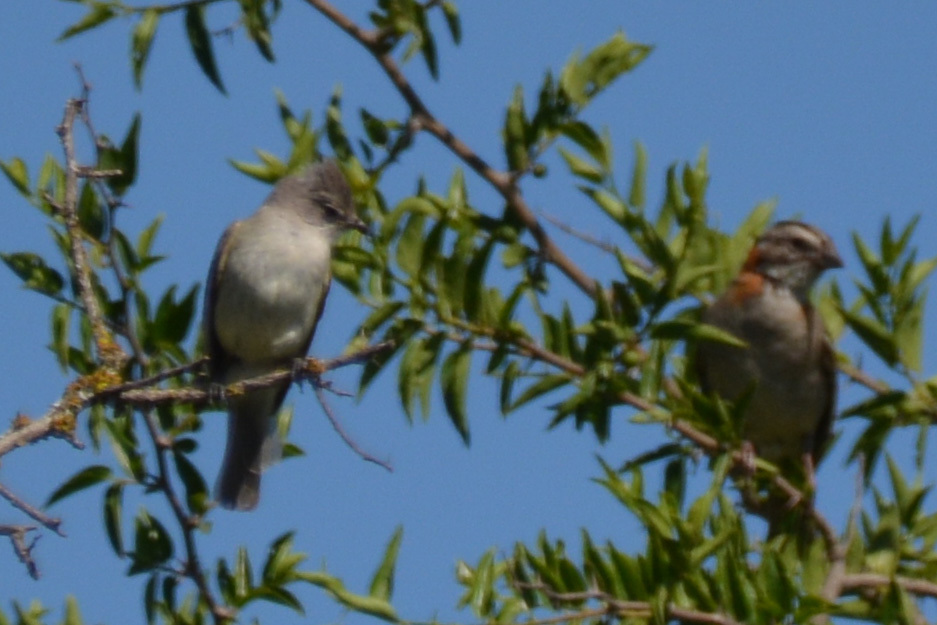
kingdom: Animalia
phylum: Chordata
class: Aves
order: Passeriformes
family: Passerellidae
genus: Zonotrichia
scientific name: Zonotrichia capensis
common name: Rufous-collared sparrow
